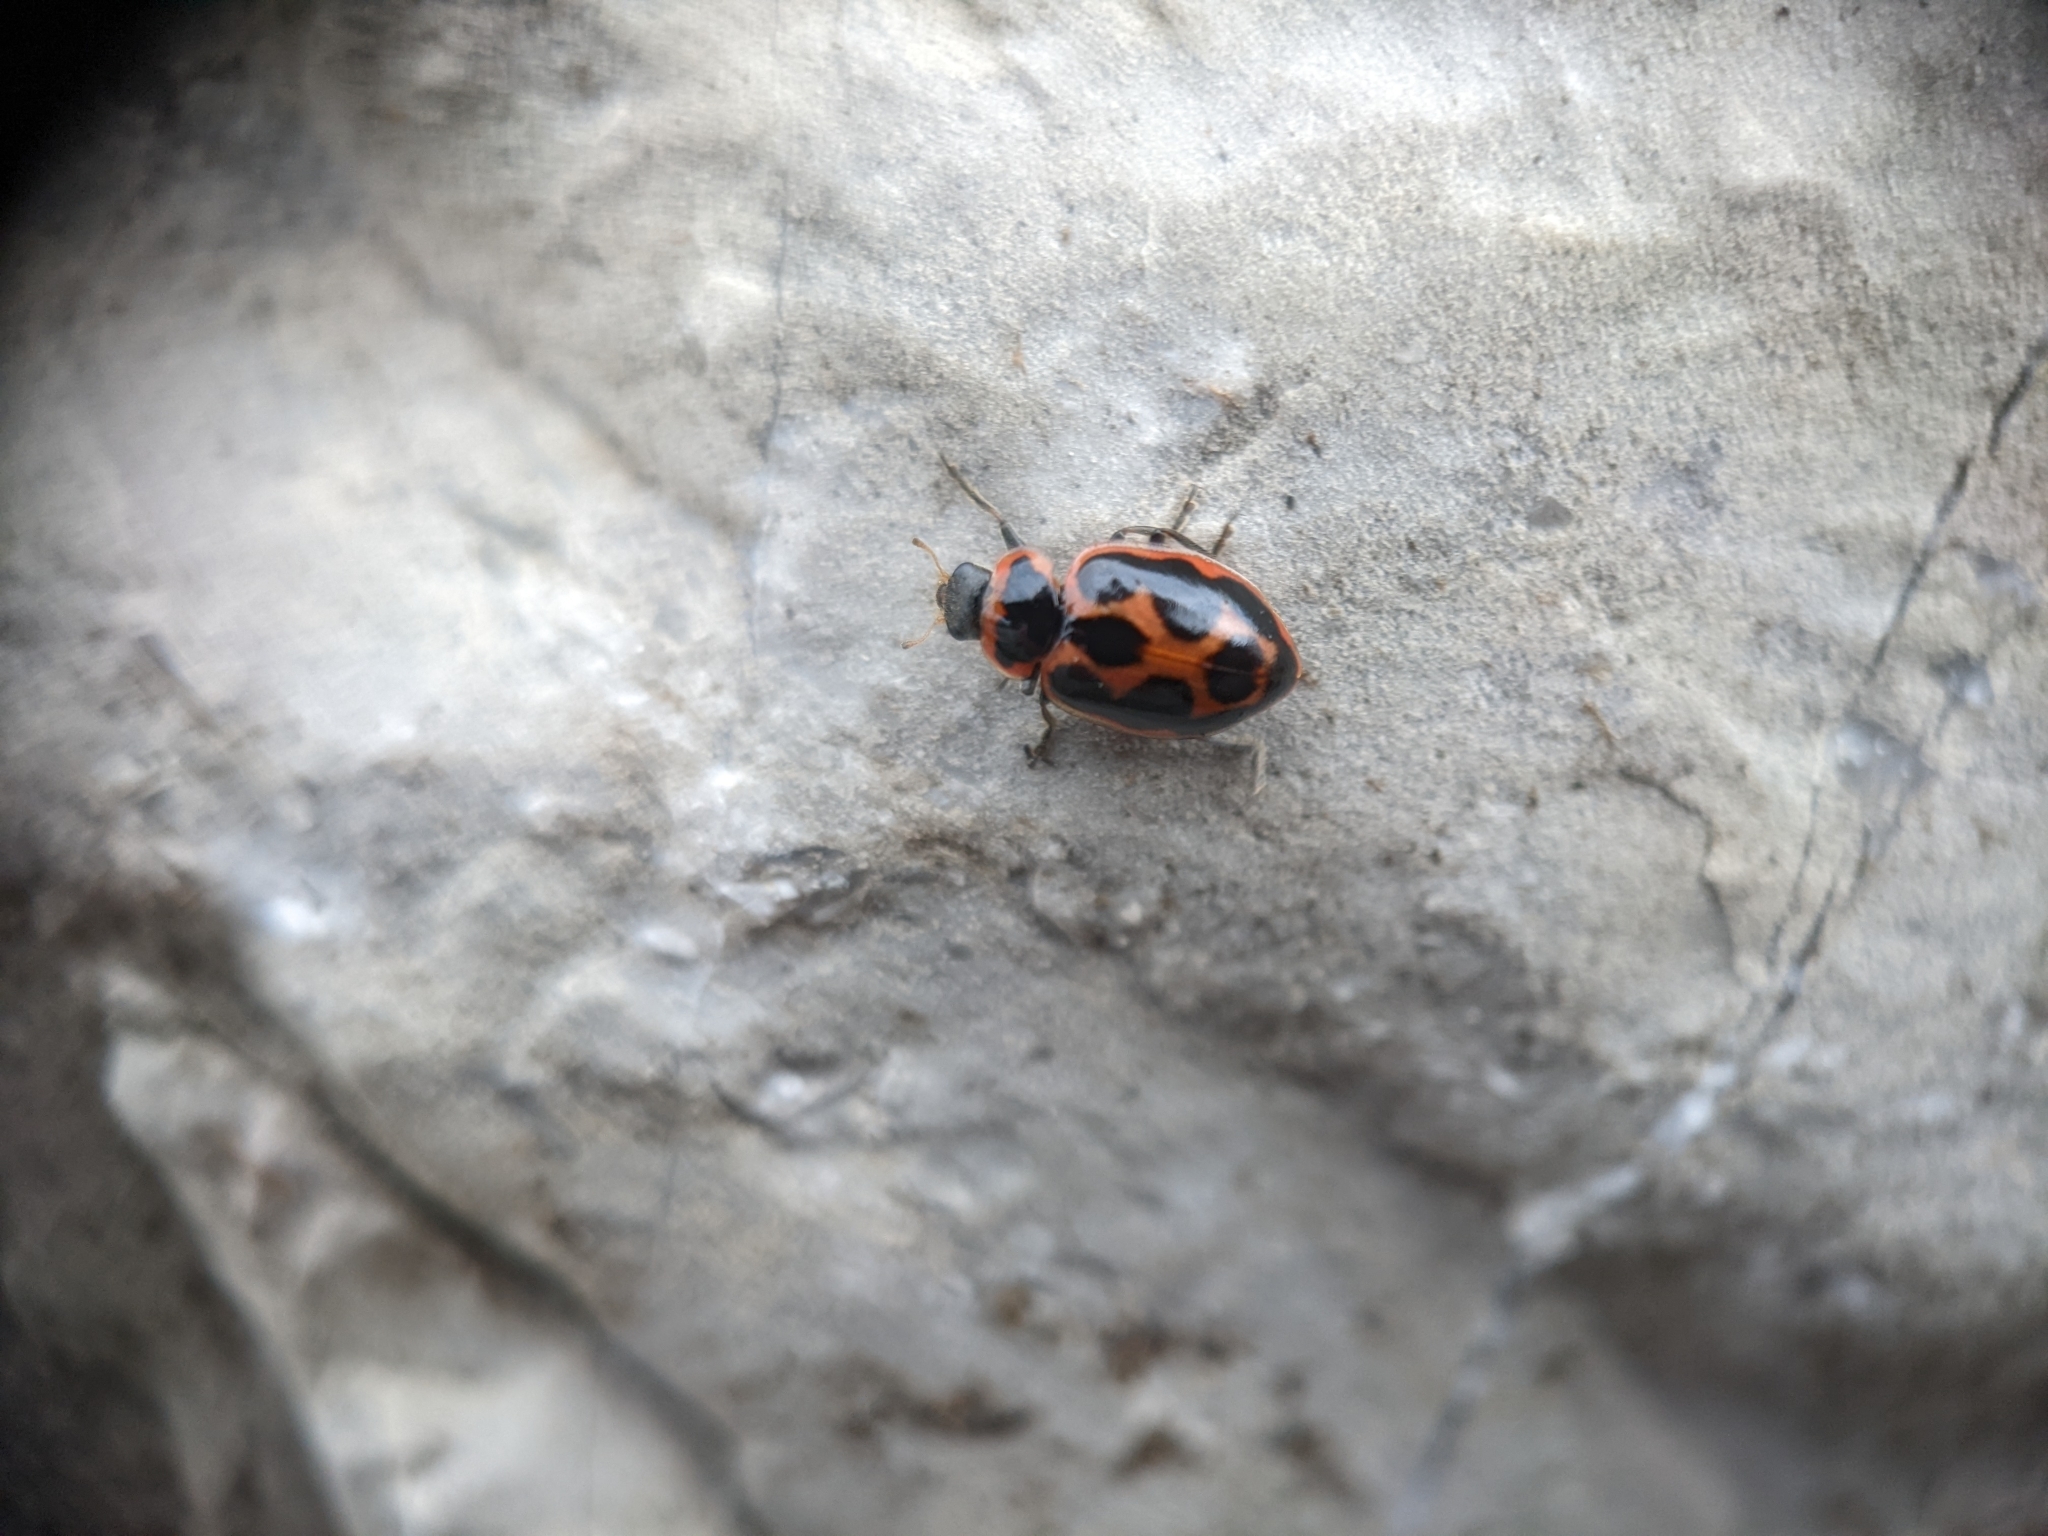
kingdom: Animalia
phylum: Arthropoda
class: Insecta
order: Coleoptera
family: Coccinellidae
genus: Naemia
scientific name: Naemia seriata
